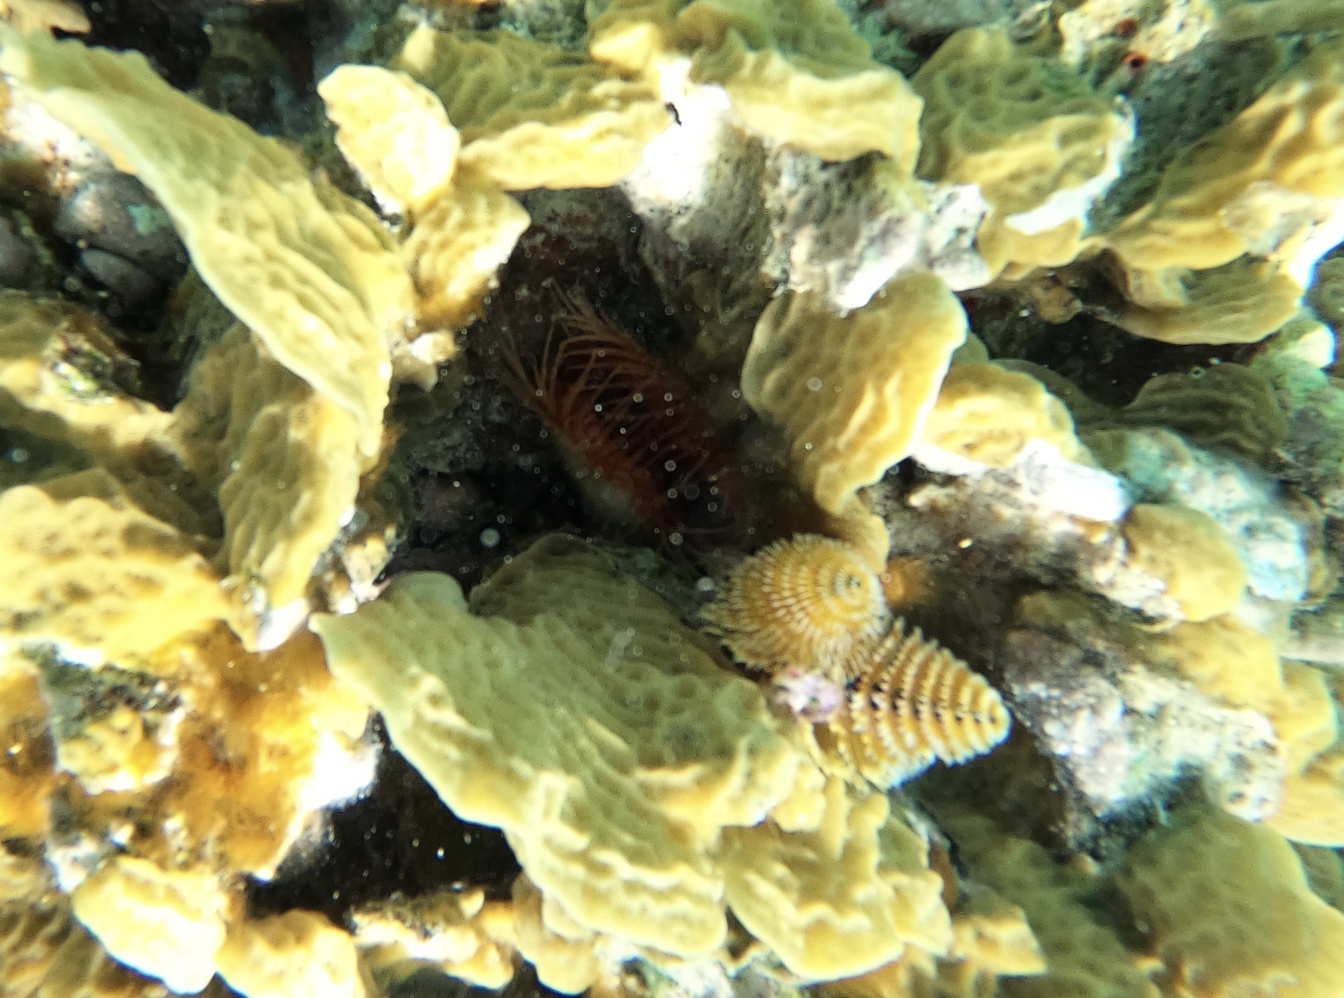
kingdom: Animalia
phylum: Mollusca
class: Bivalvia
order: Limida
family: Limidae
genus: Ctenoides
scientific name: Ctenoides scaber
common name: Rough fileclam
